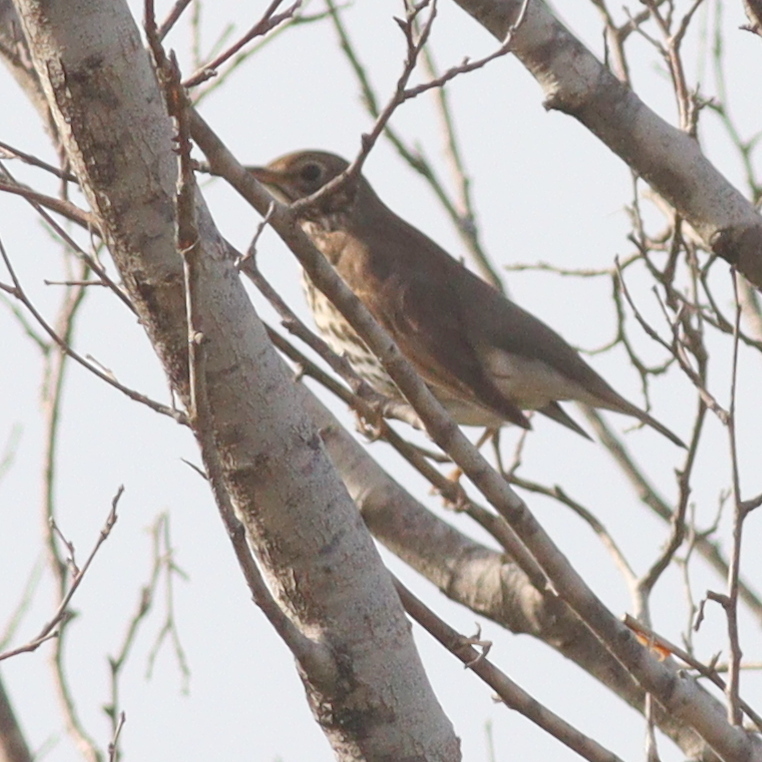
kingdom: Animalia
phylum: Chordata
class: Aves
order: Passeriformes
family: Turdidae
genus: Turdus
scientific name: Turdus philomelos
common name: Song thrush
